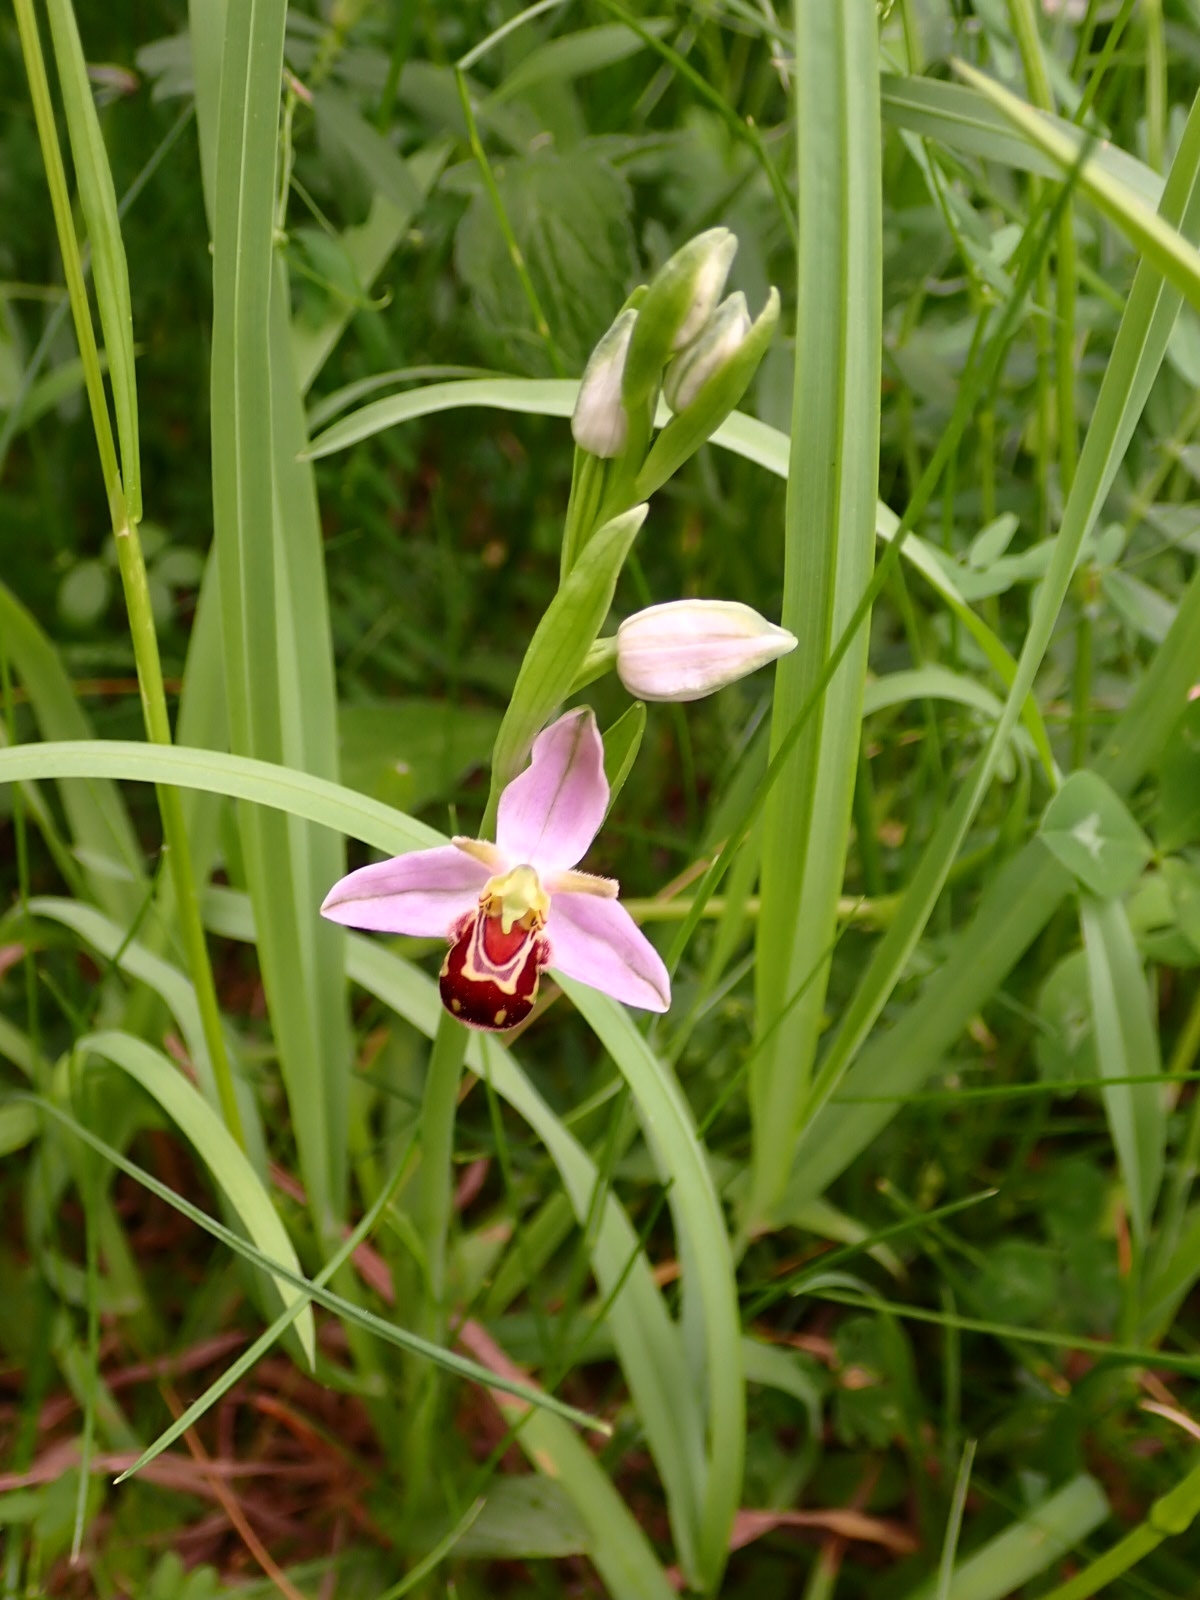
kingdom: Plantae
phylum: Tracheophyta
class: Liliopsida
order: Asparagales
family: Orchidaceae
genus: Ophrys
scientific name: Ophrys apifera
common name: Bee orchid
